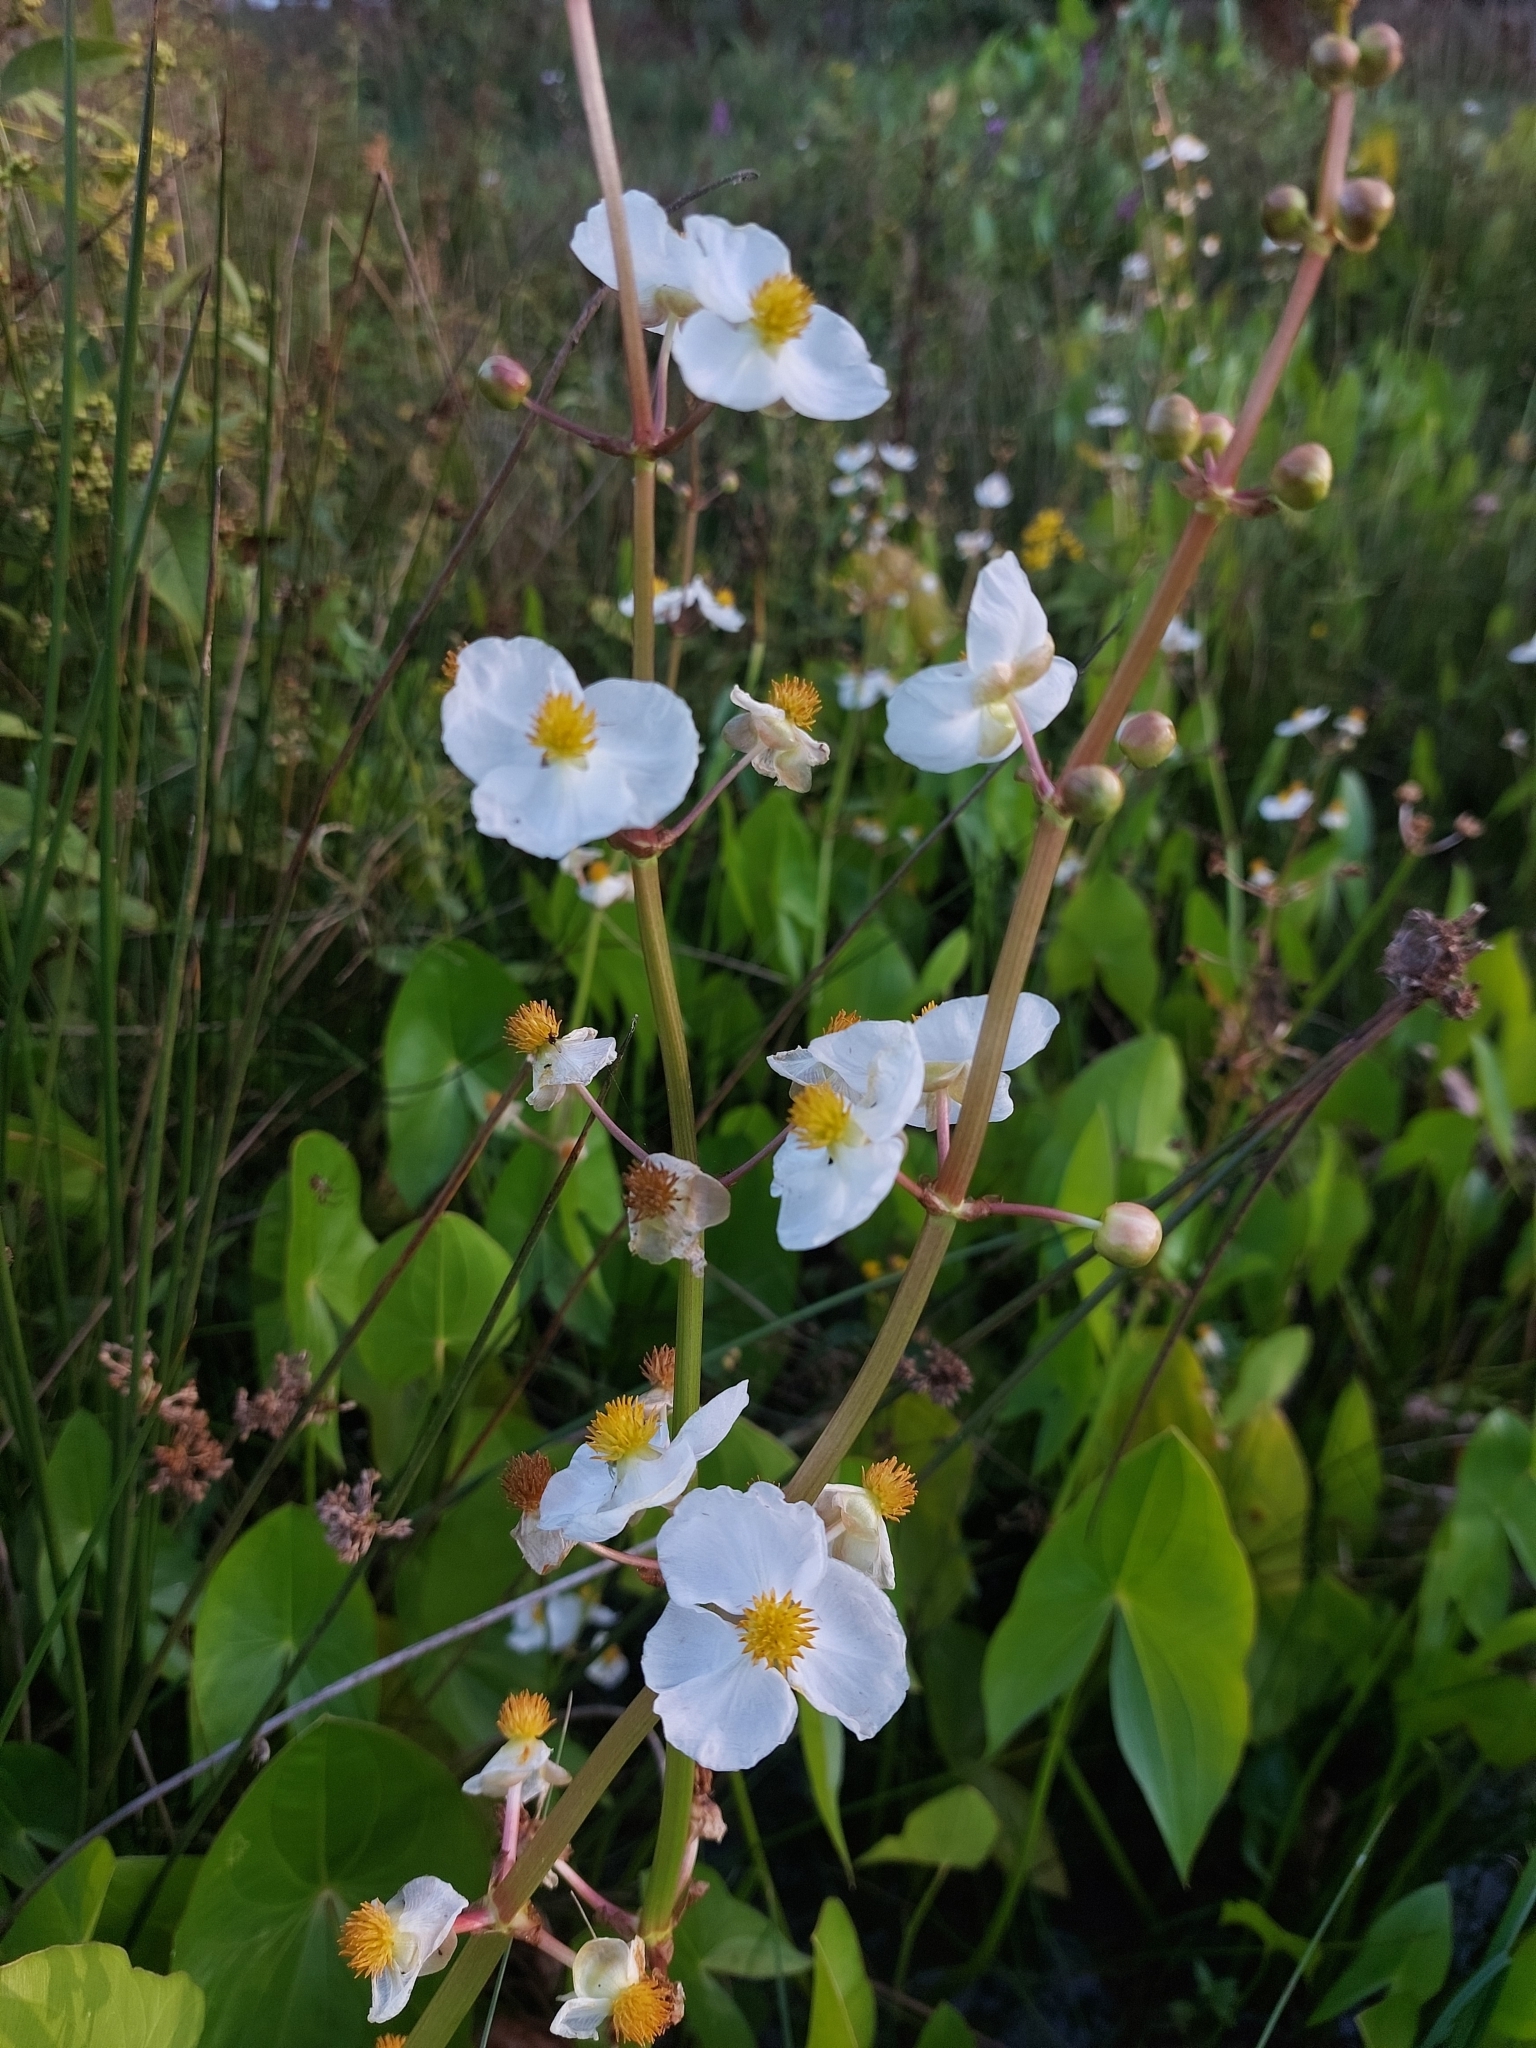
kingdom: Plantae
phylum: Tracheophyta
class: Liliopsida
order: Alismatales
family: Alismataceae
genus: Sagittaria
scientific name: Sagittaria latifolia
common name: Duck-potato
